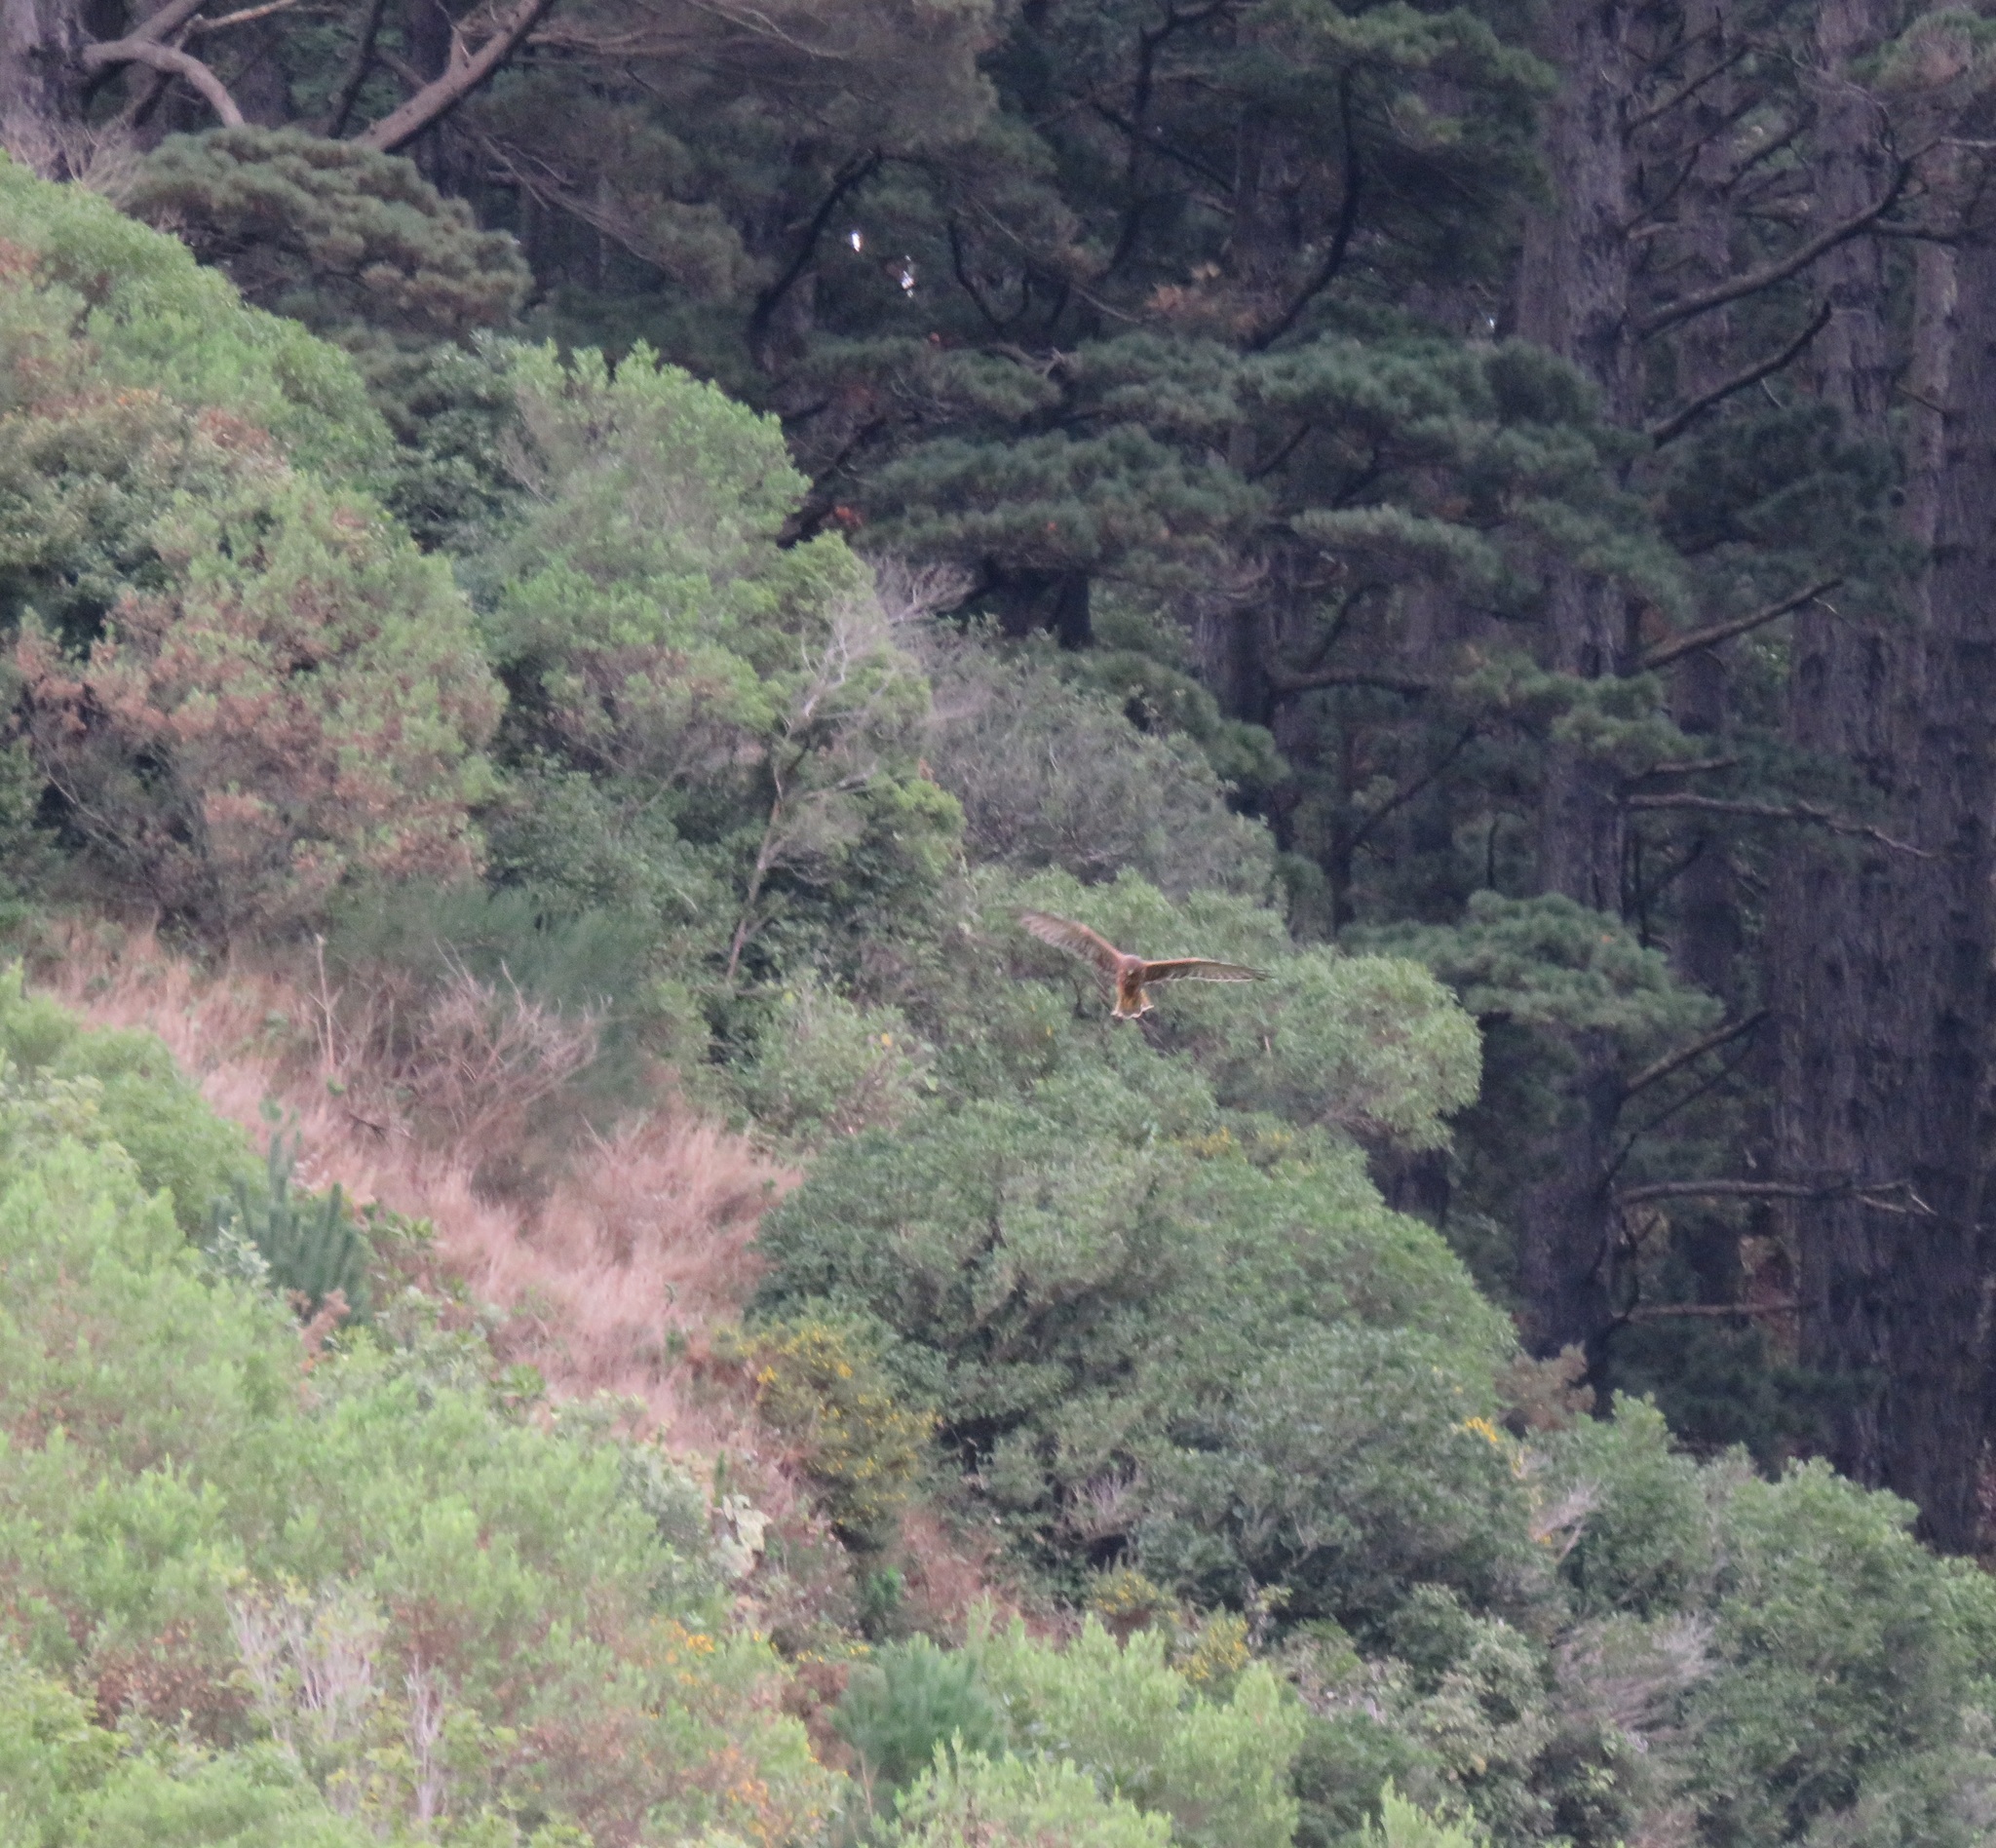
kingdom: Animalia
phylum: Chordata
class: Aves
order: Accipitriformes
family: Accipitridae
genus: Circus
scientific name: Circus approximans
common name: Swamp harrier
